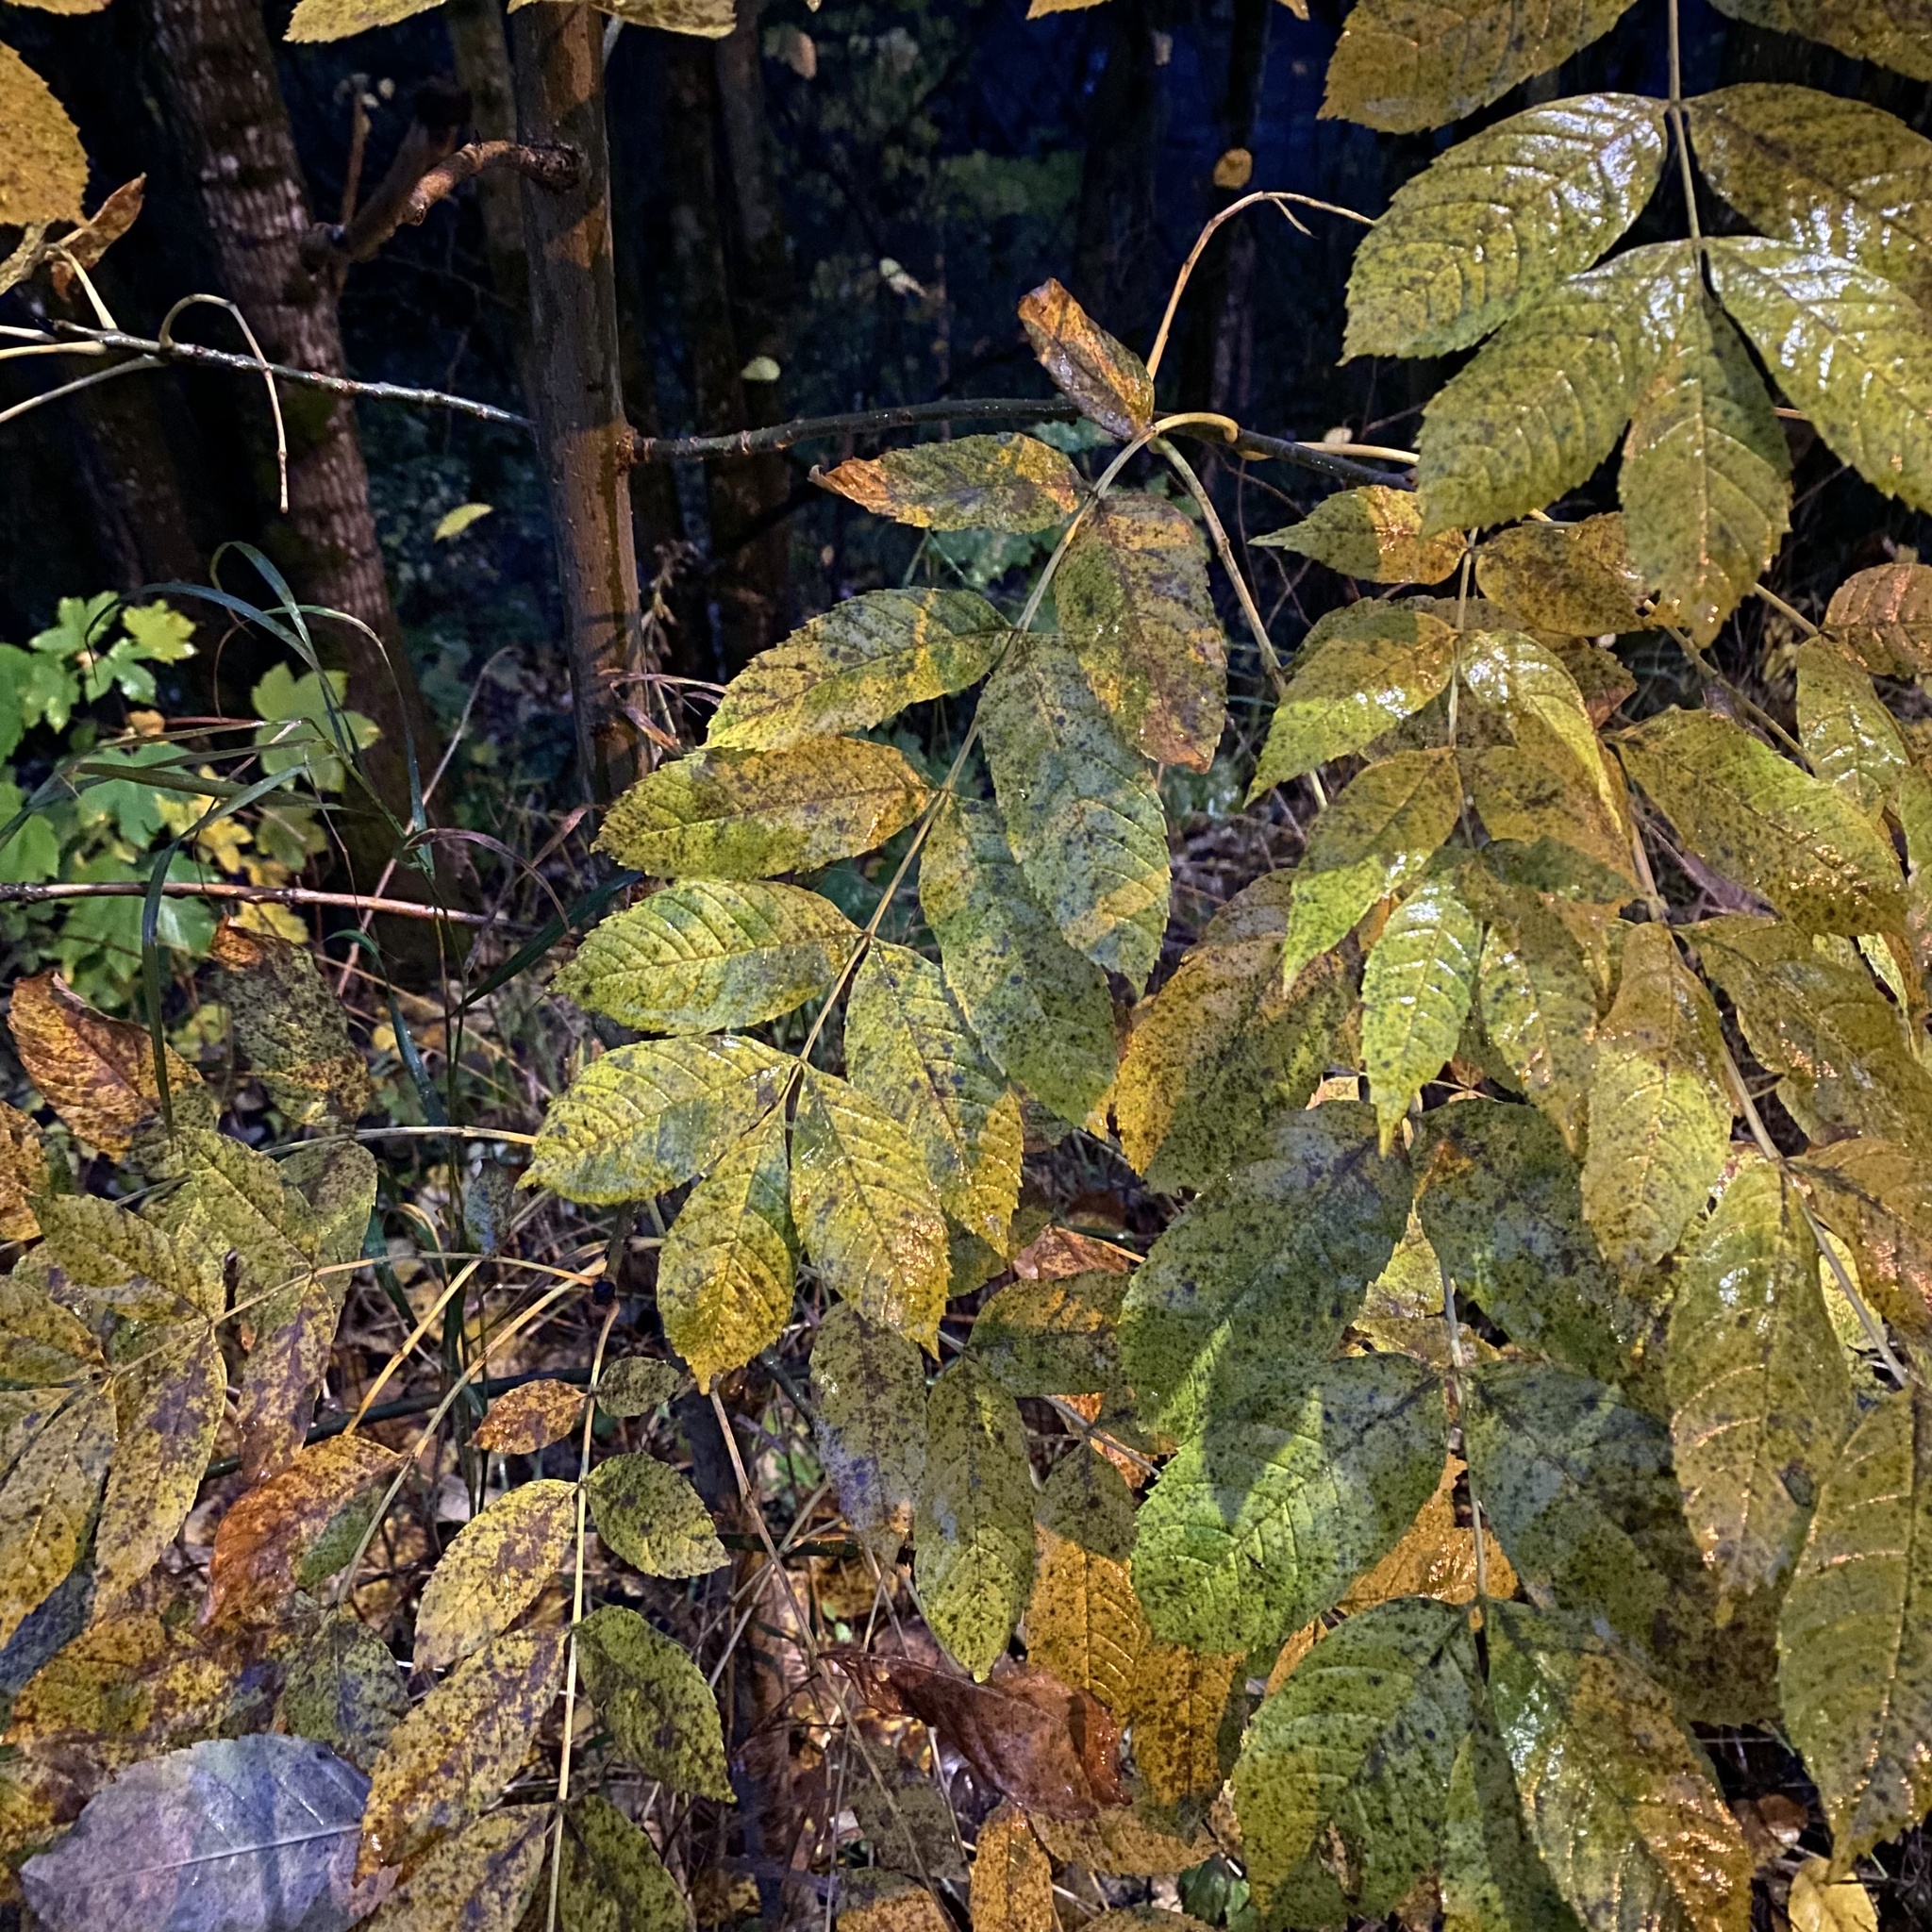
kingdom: Plantae
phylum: Tracheophyta
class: Magnoliopsida
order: Lamiales
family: Oleaceae
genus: Fraxinus
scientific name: Fraxinus excelsior
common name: European ash
